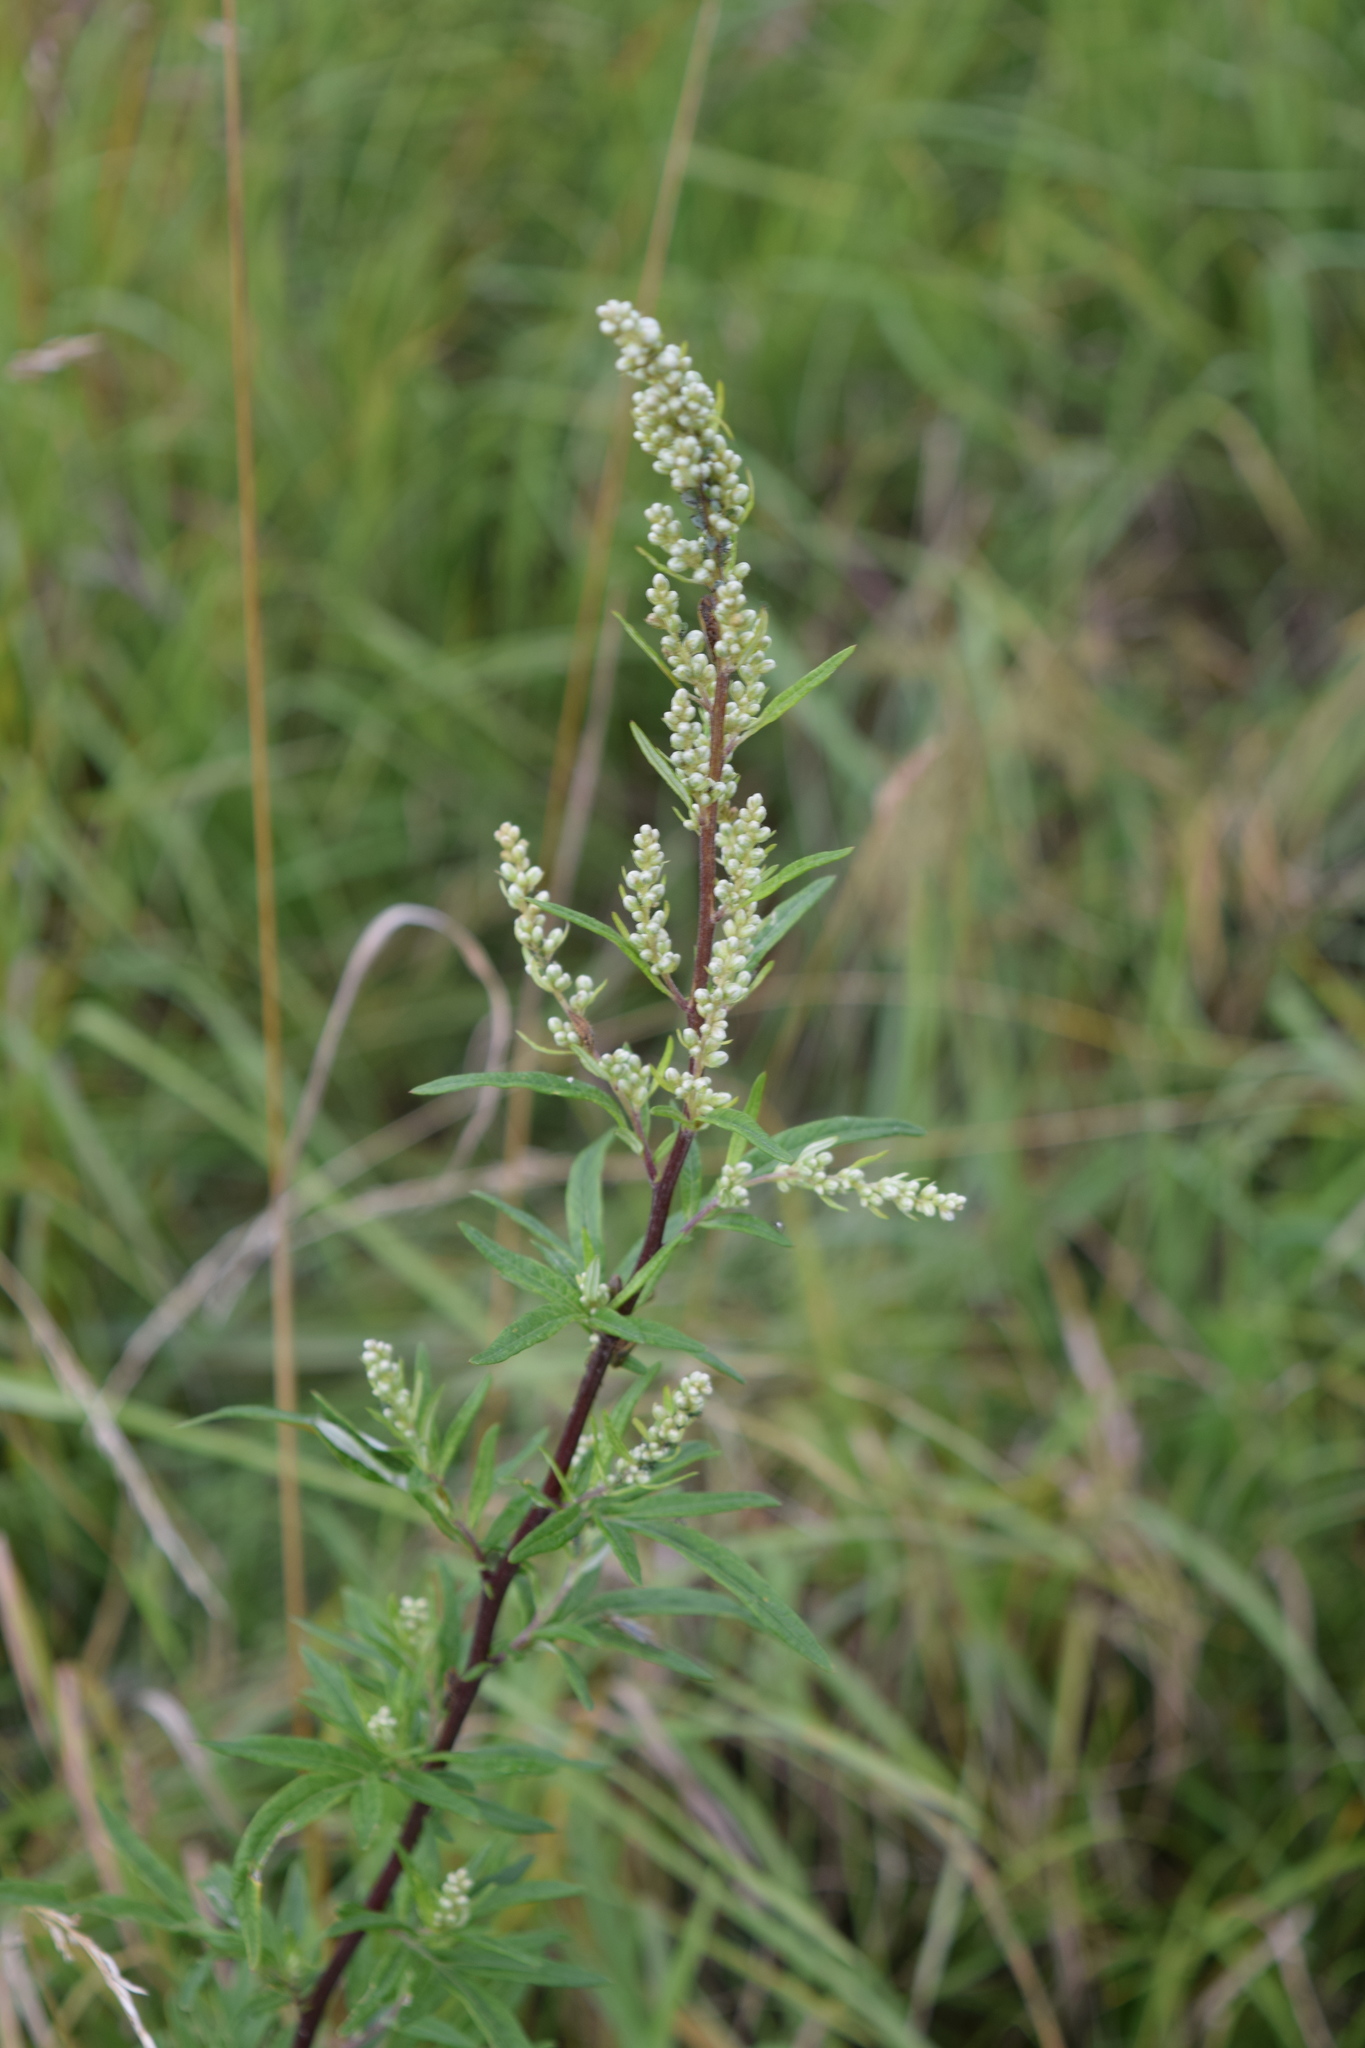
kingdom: Plantae
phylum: Tracheophyta
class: Magnoliopsida
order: Asterales
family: Asteraceae
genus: Artemisia
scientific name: Artemisia vulgaris
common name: Mugwort
